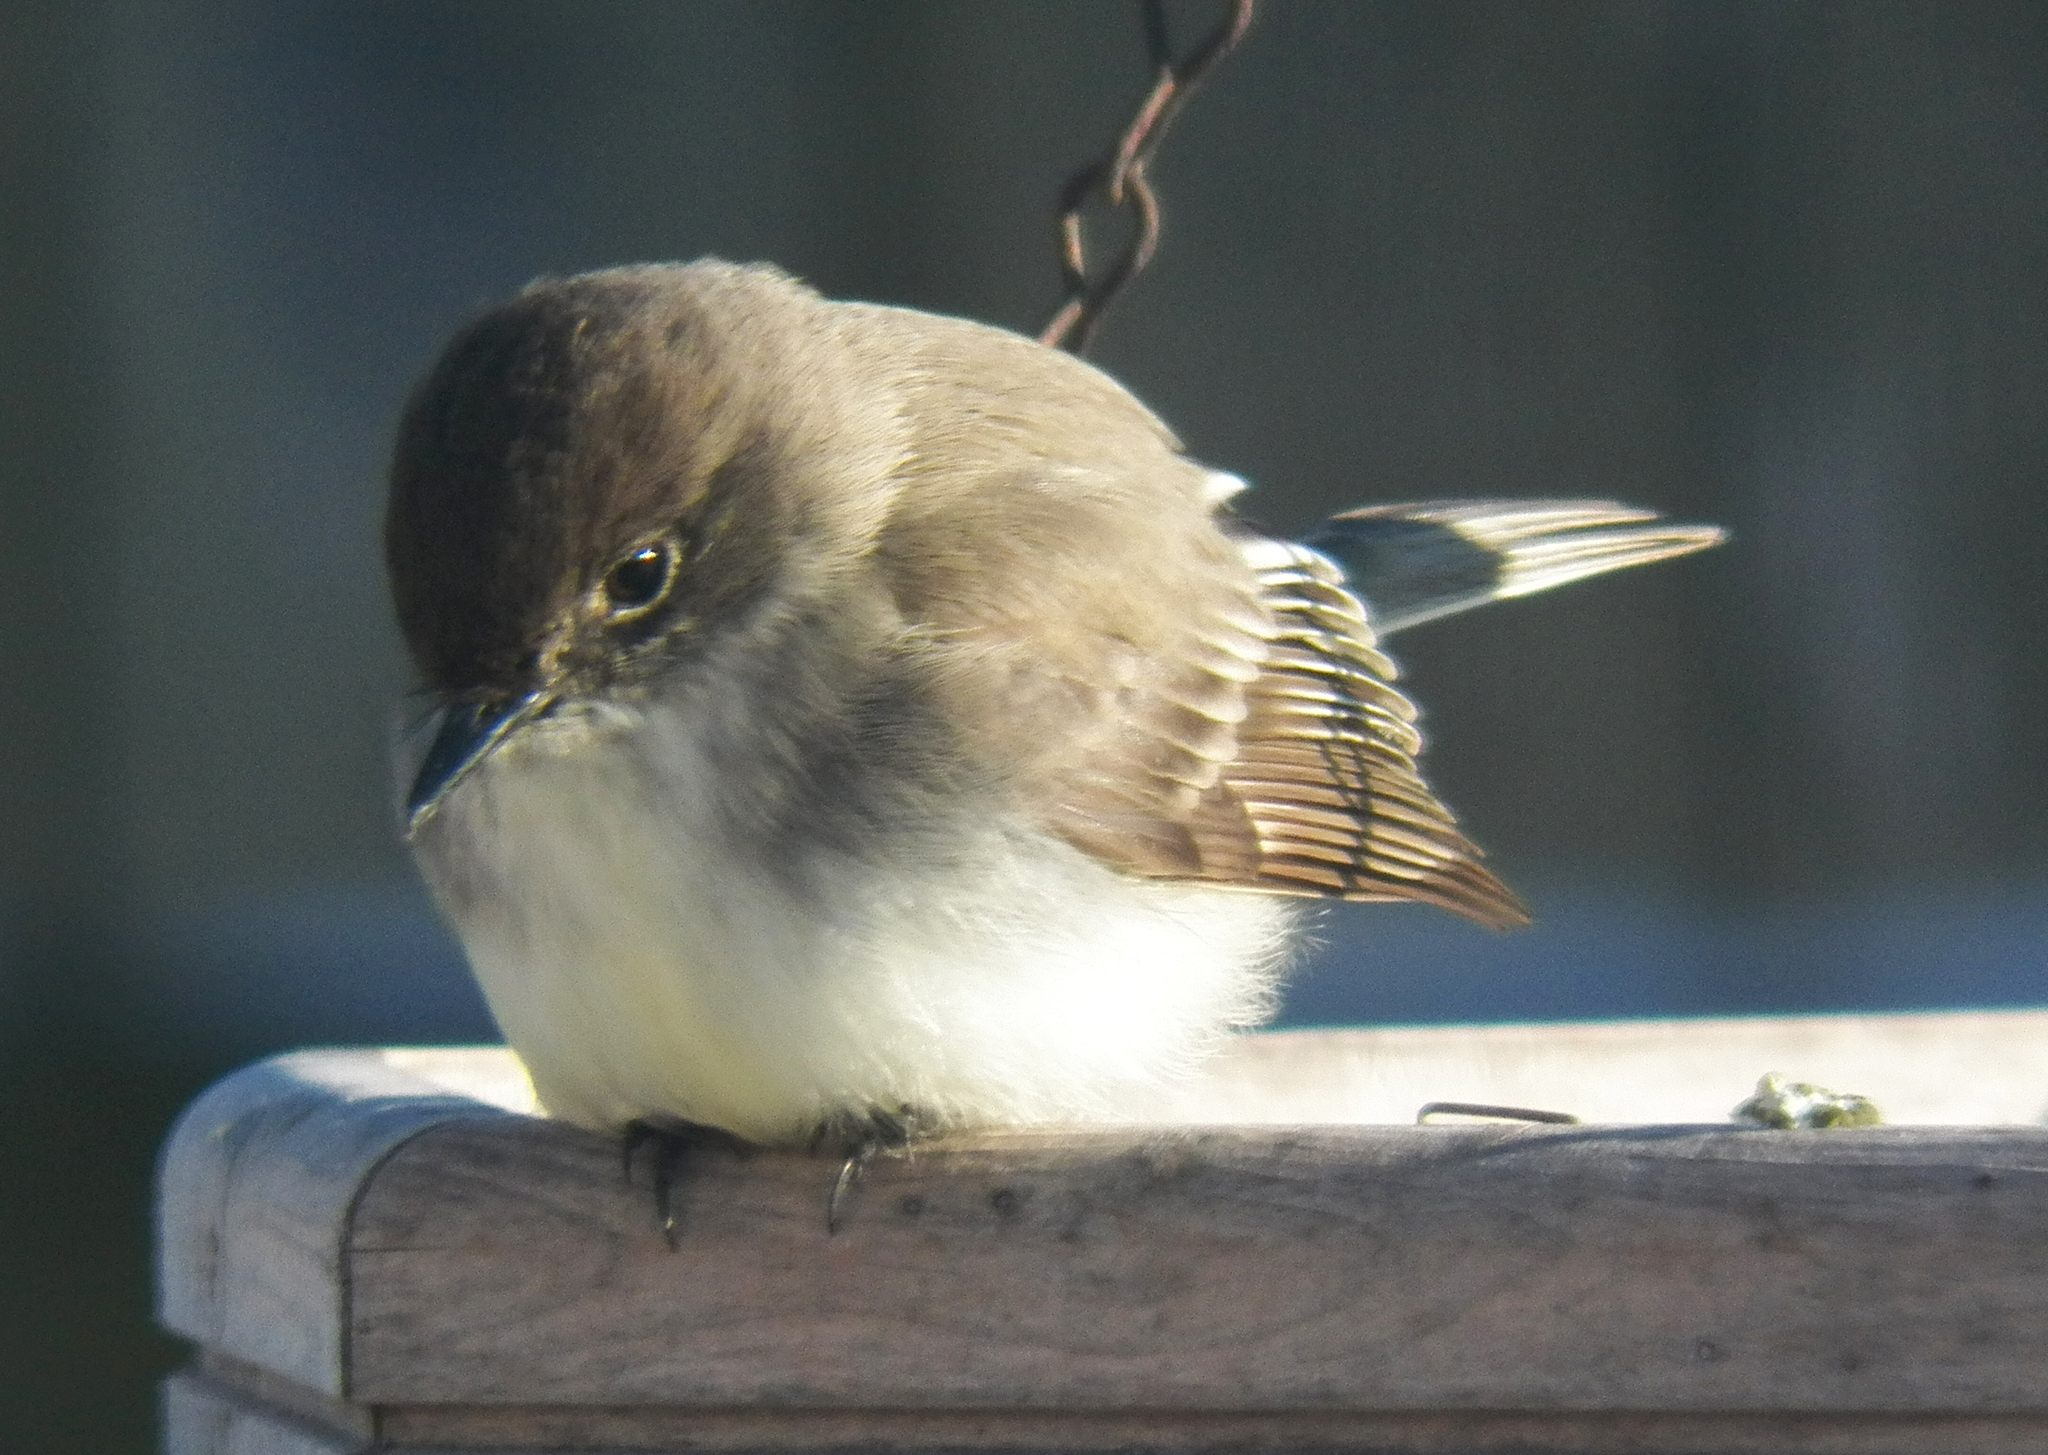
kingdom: Animalia
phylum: Chordata
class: Aves
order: Passeriformes
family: Tyrannidae
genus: Sayornis
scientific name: Sayornis phoebe
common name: Eastern phoebe
